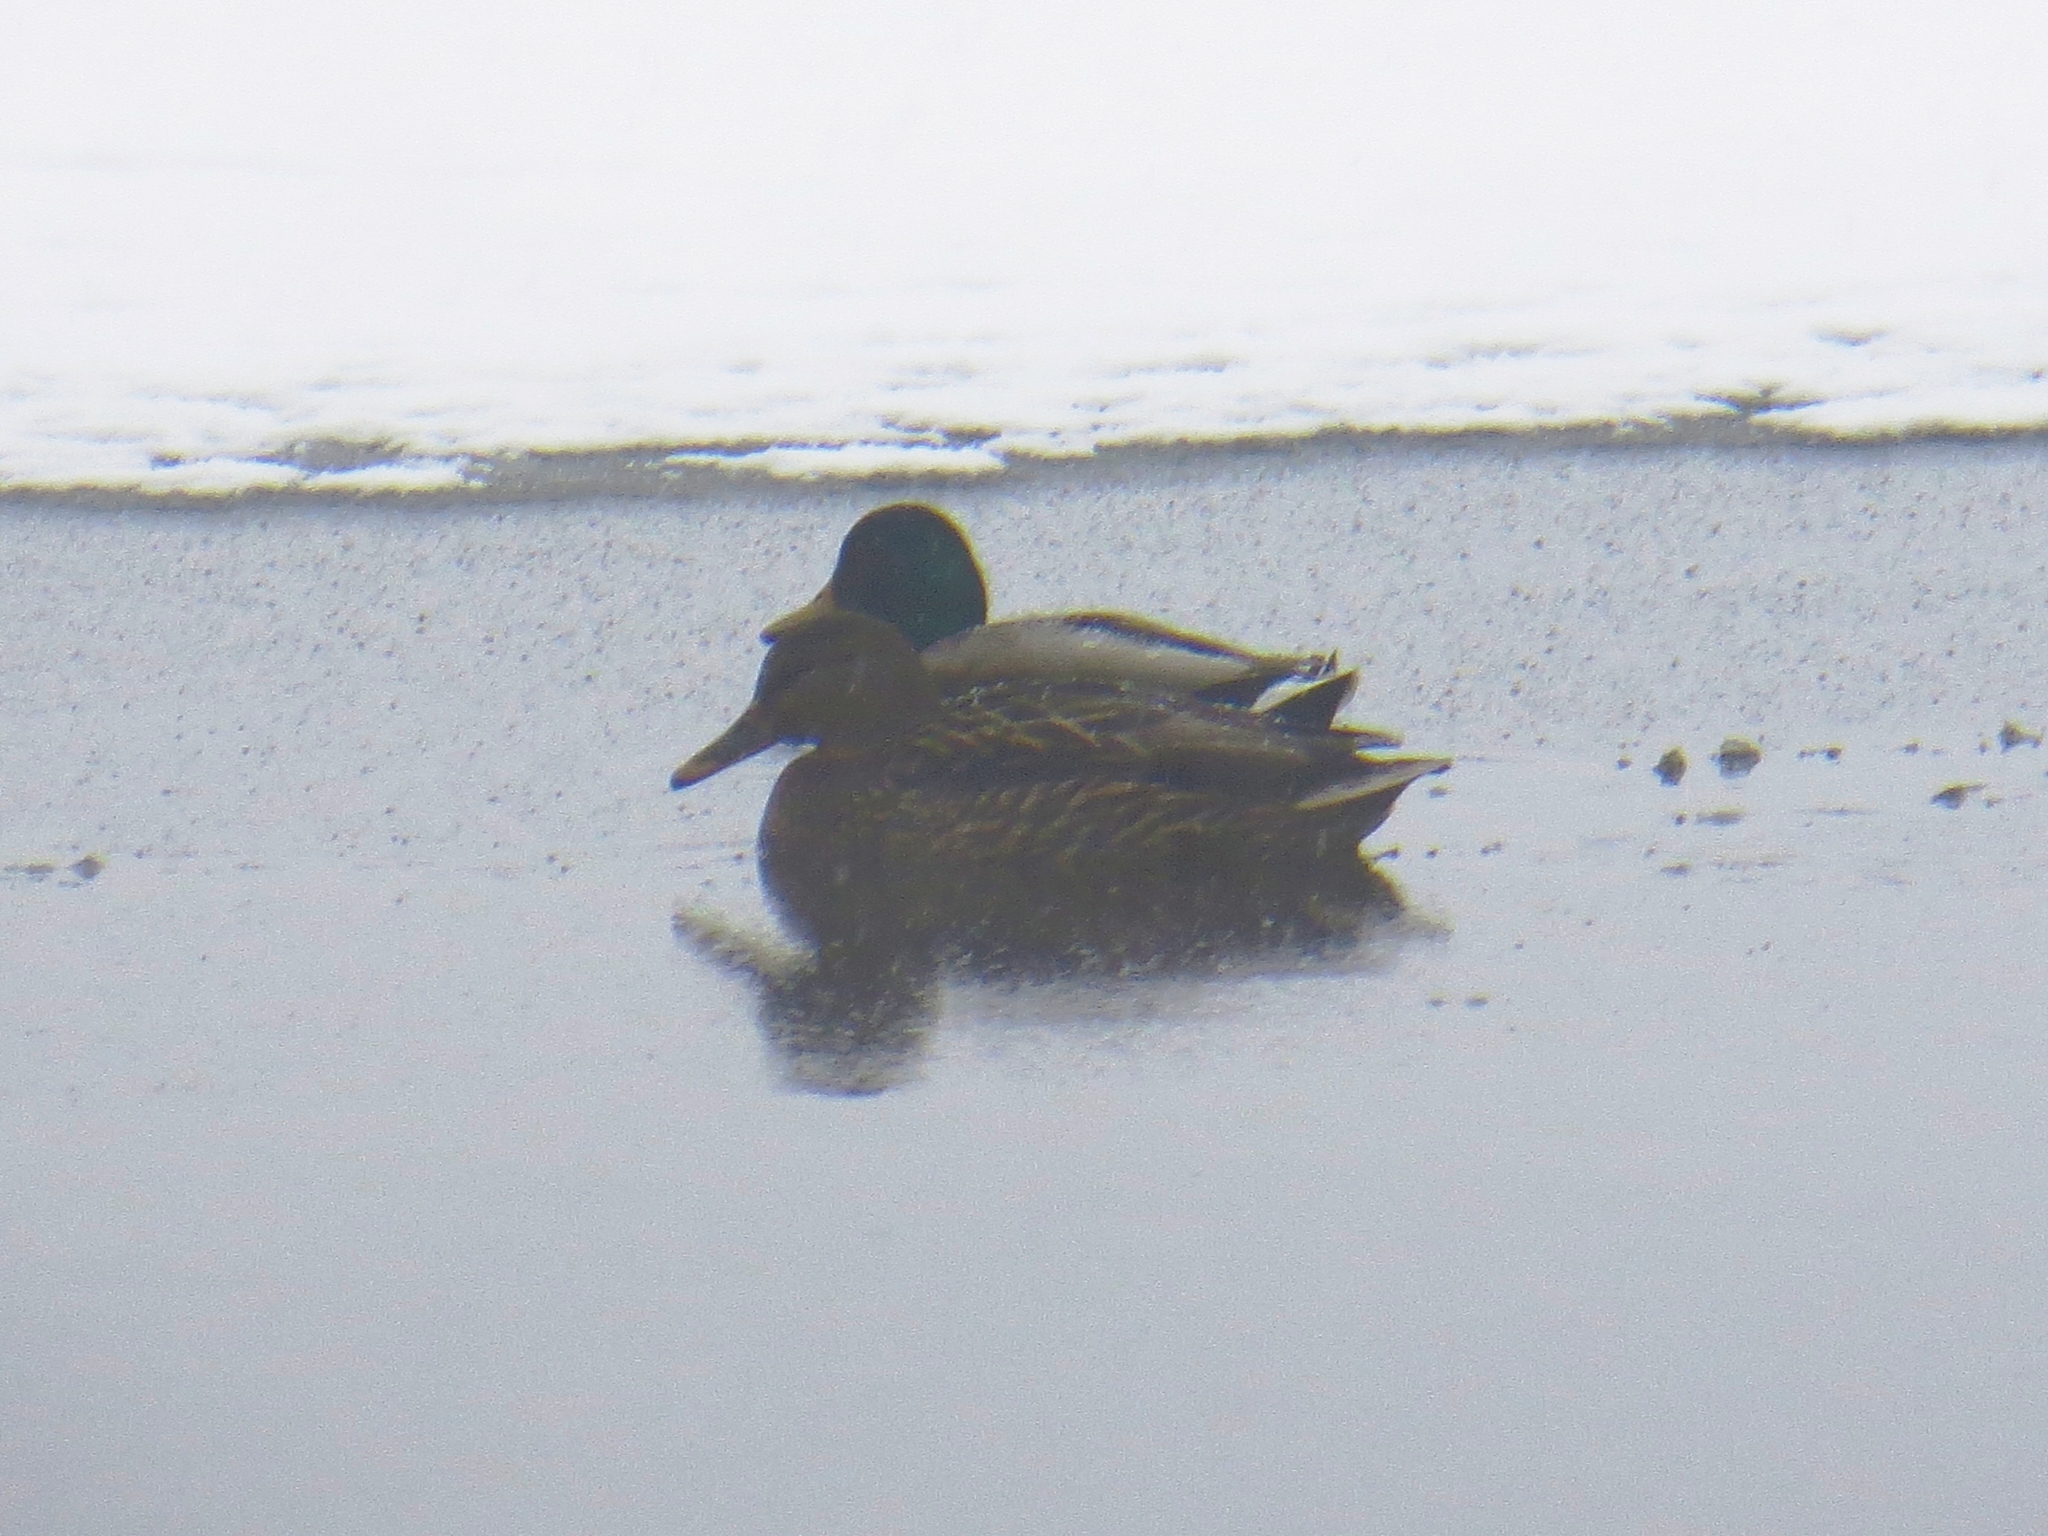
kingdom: Animalia
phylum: Chordata
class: Aves
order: Anseriformes
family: Anatidae
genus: Anas
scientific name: Anas platyrhynchos
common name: Mallard
